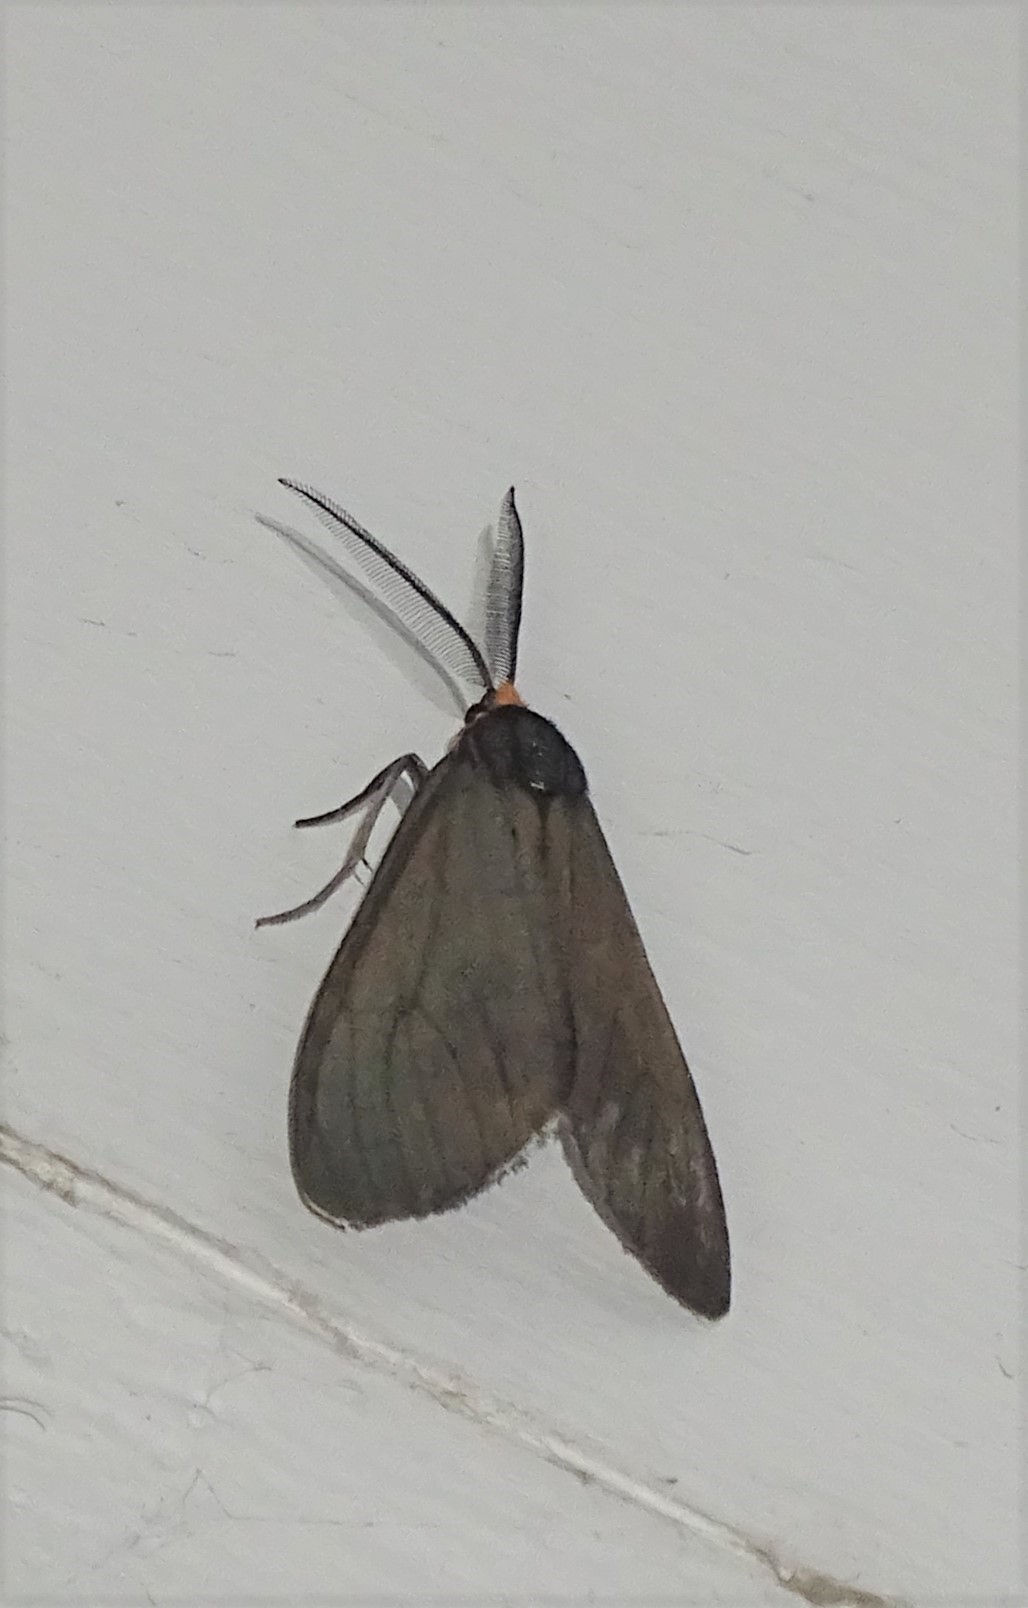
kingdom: Animalia
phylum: Arthropoda
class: Insecta
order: Lepidoptera
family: Erebidae
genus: Ctenucha
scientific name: Ctenucha virginica
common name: Virginia ctenucha moth
